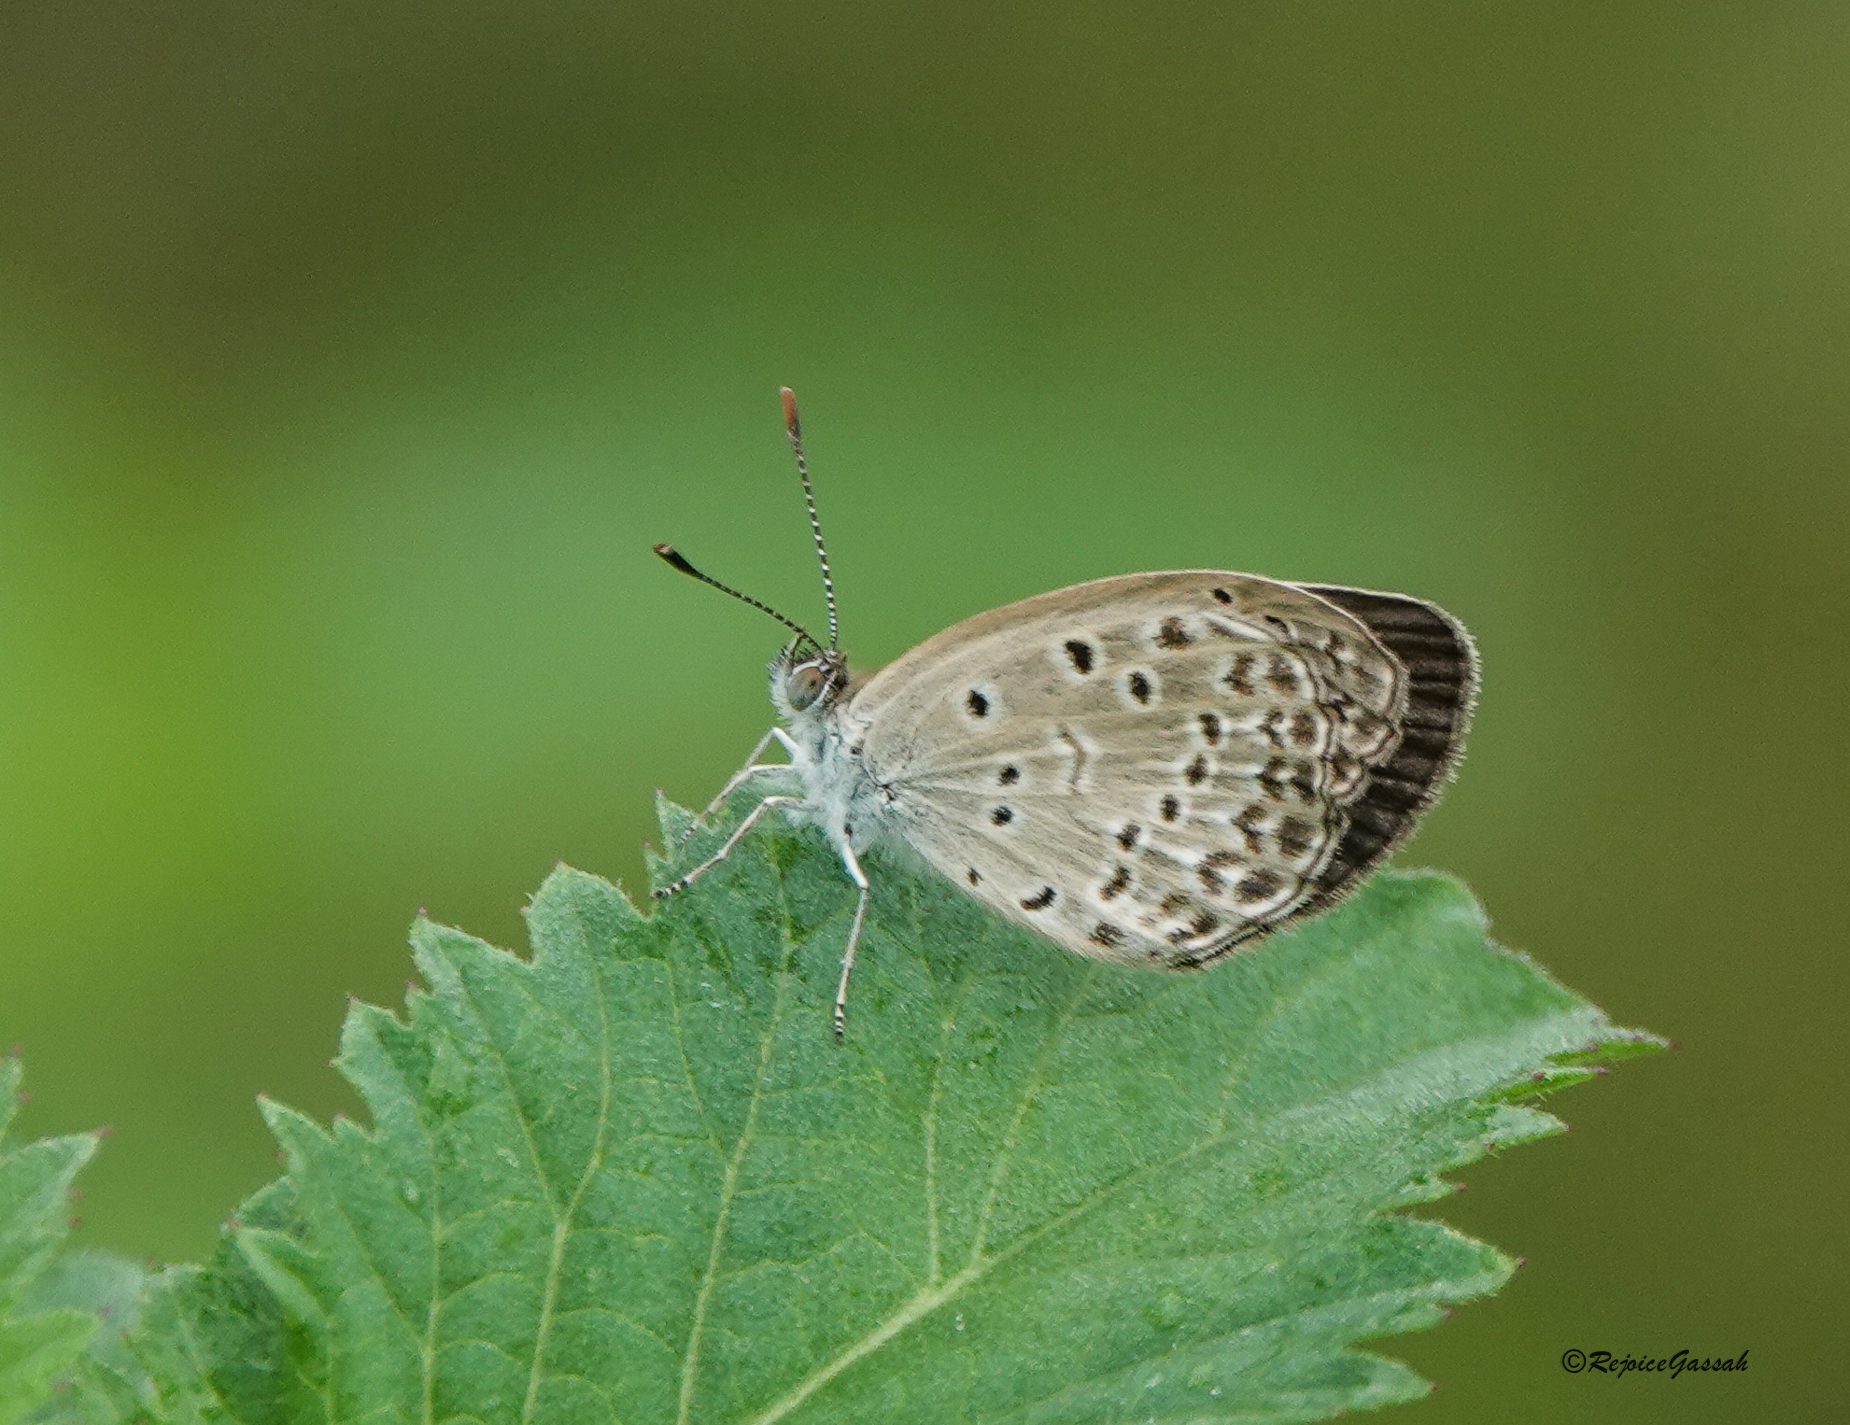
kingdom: Animalia
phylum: Arthropoda
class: Insecta
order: Lepidoptera
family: Lycaenidae
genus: Pseudozizeeria
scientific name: Pseudozizeeria maha
